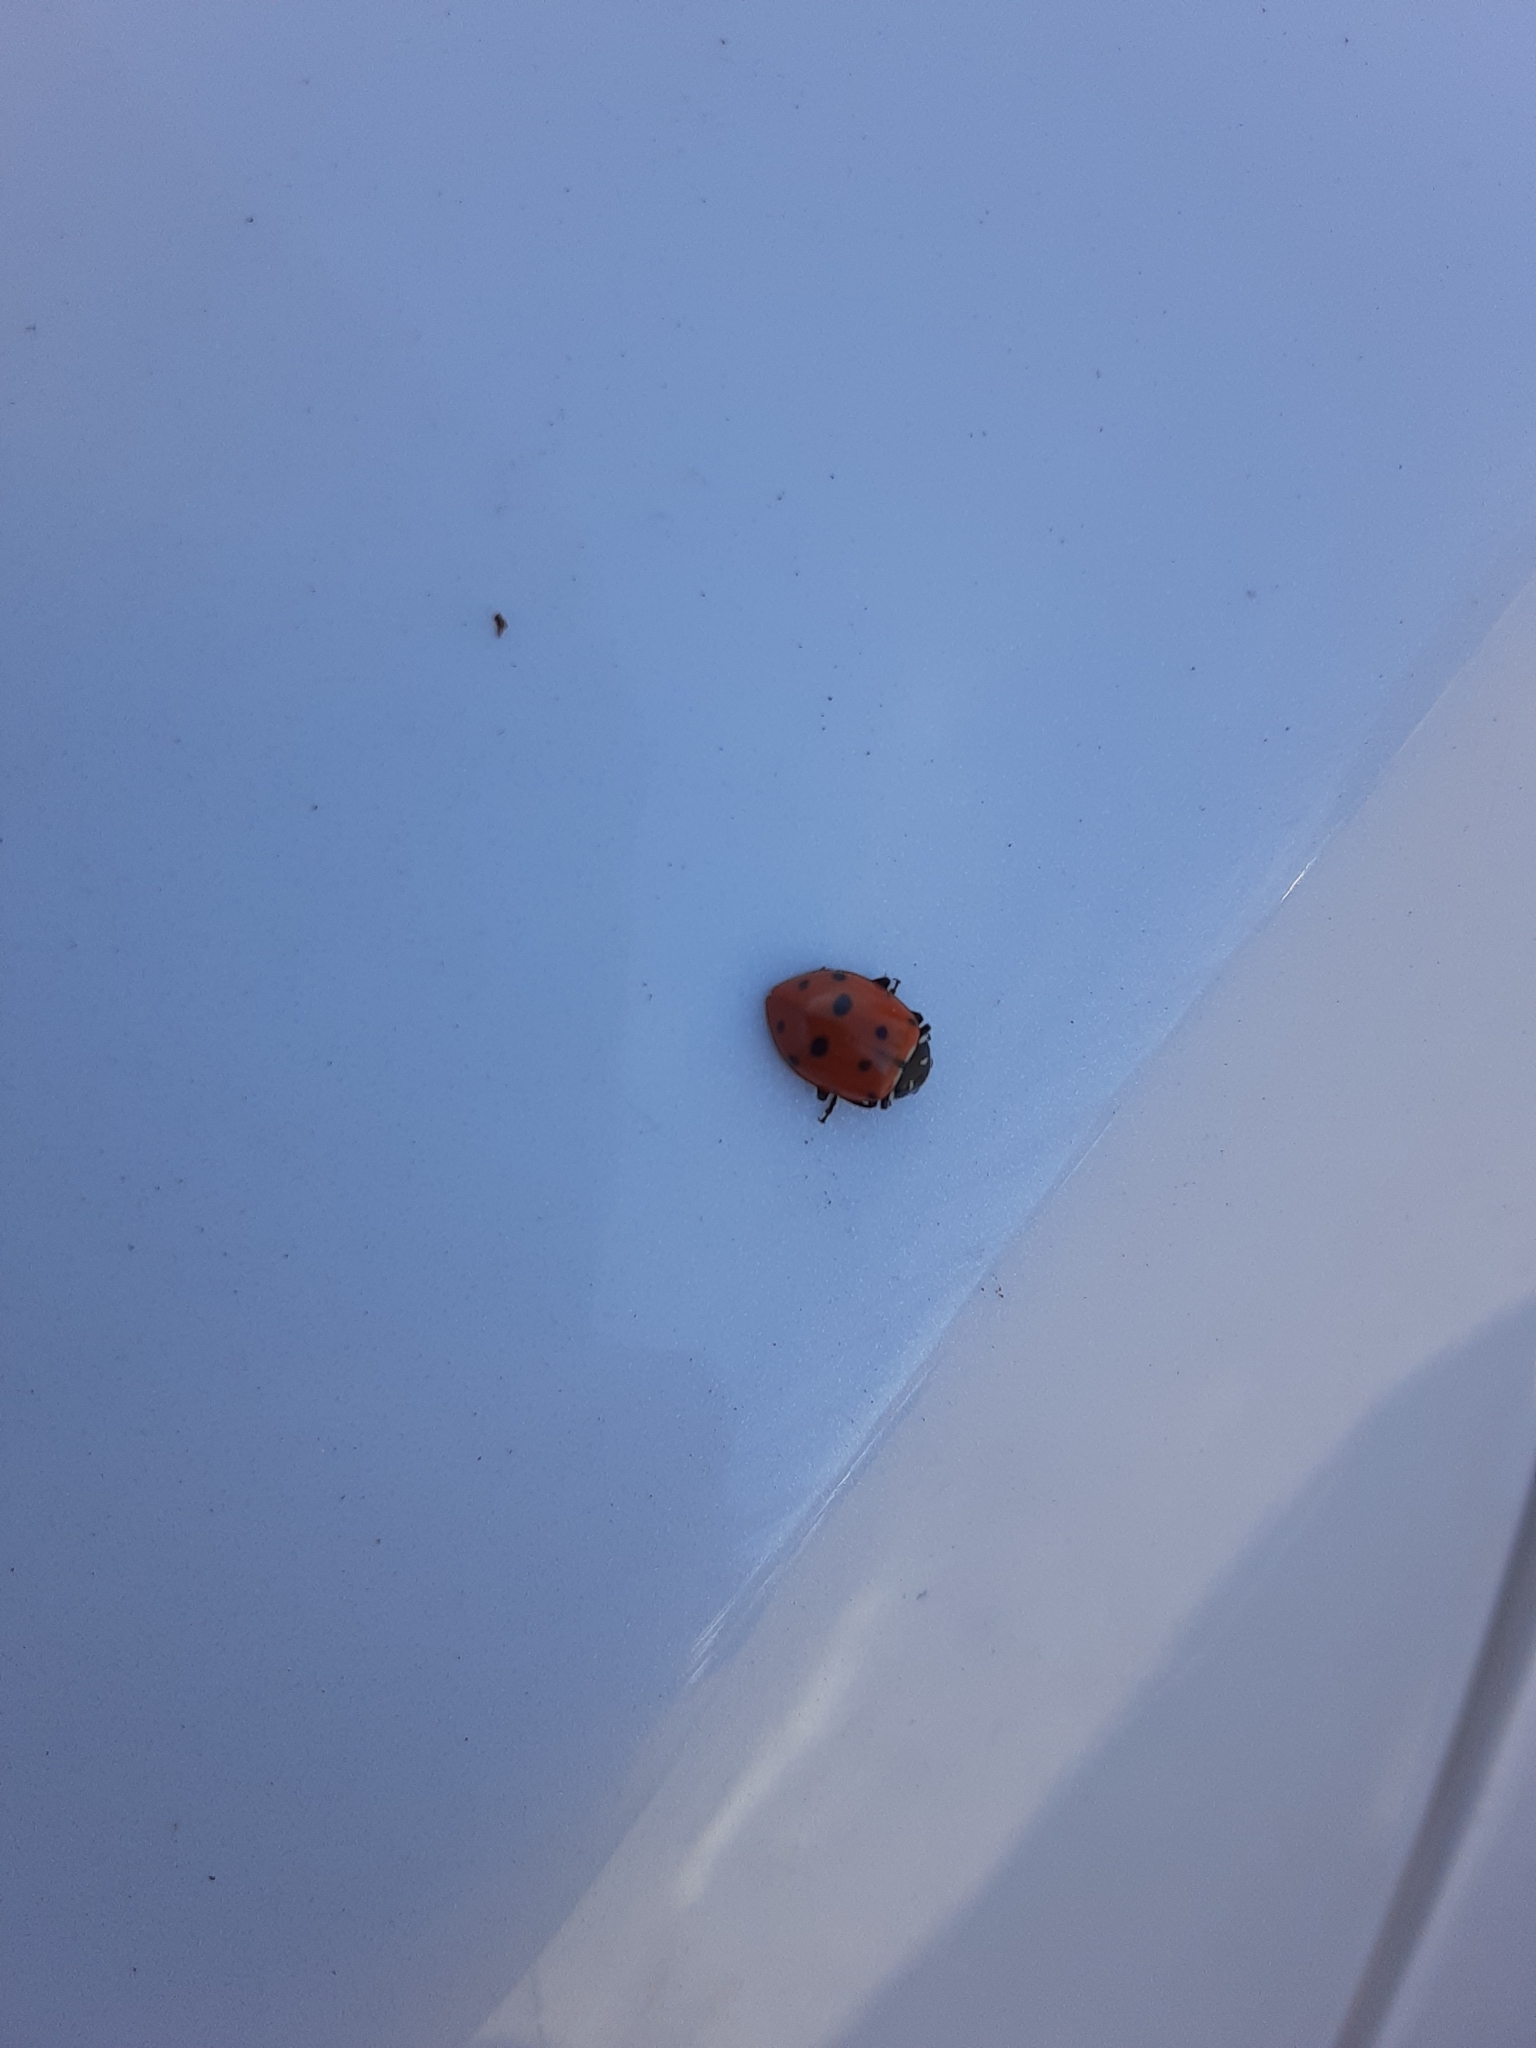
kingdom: Animalia
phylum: Arthropoda
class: Insecta
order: Coleoptera
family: Coccinellidae
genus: Hippodamia
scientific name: Hippodamia convergens
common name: Convergent lady beetle
